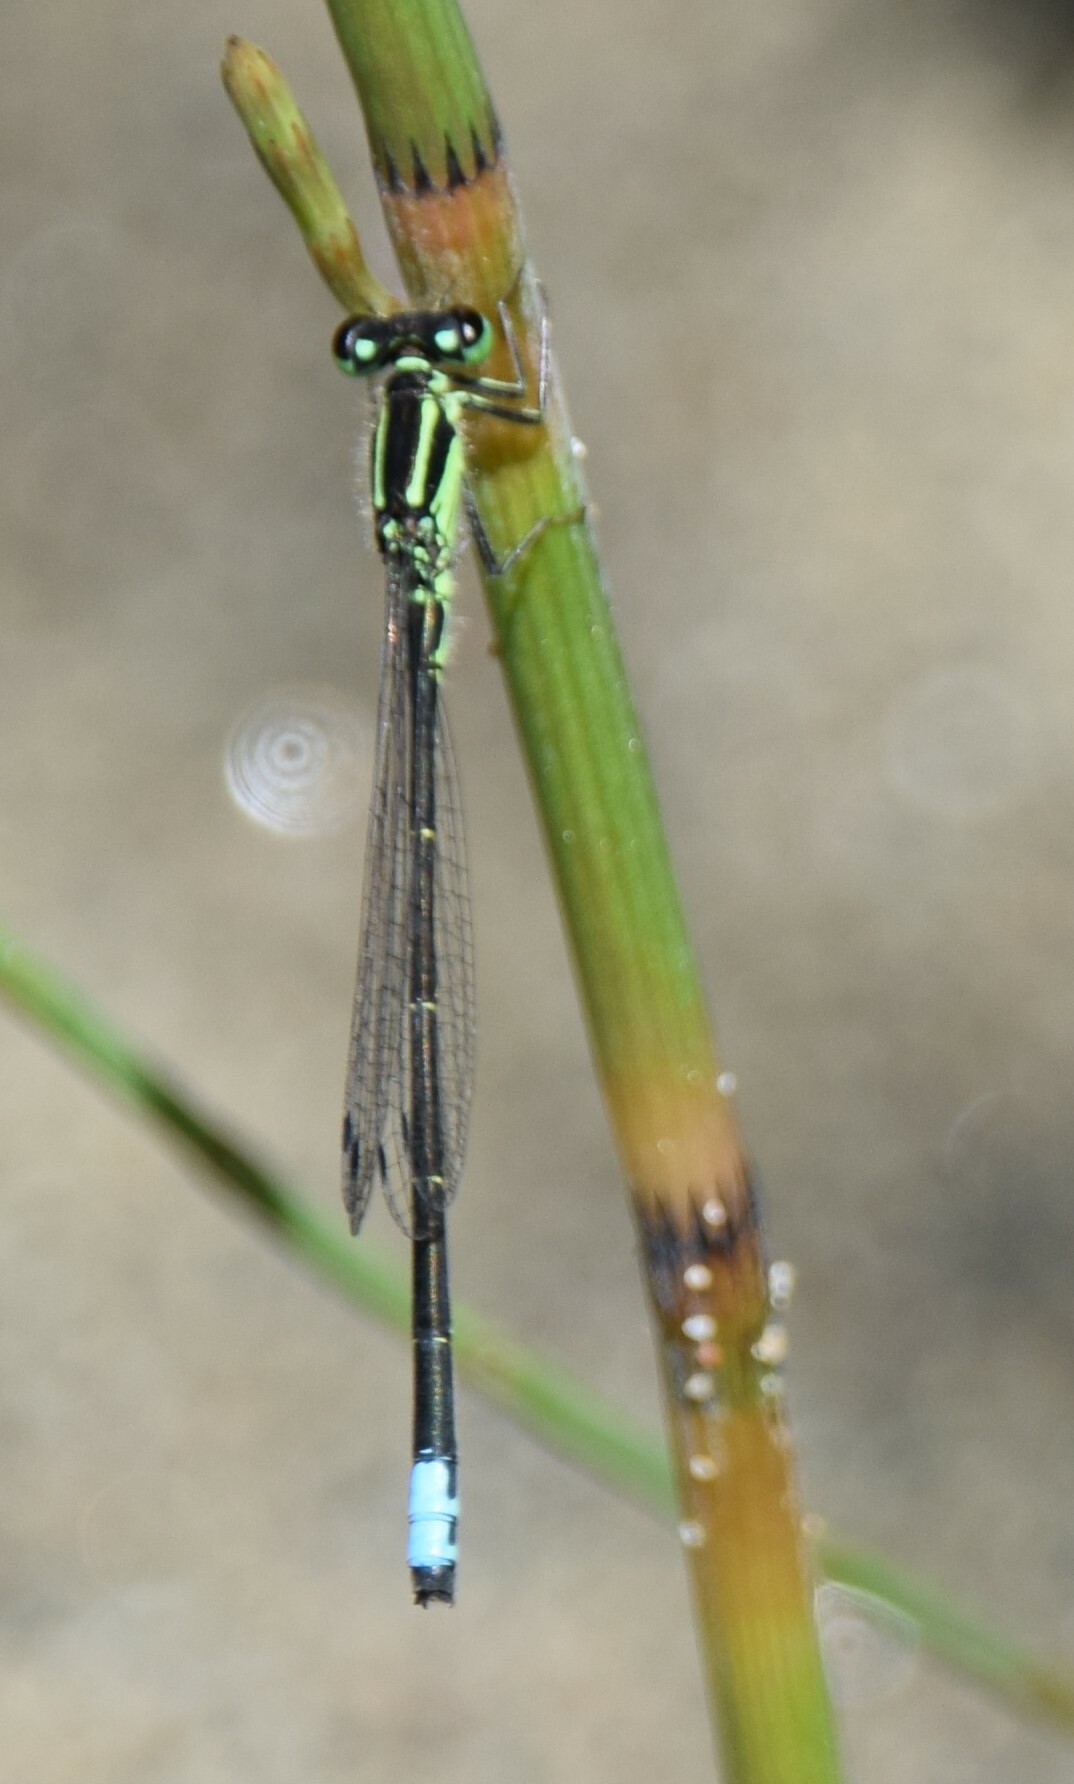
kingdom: Animalia
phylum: Arthropoda
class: Insecta
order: Odonata
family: Coenagrionidae
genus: Ischnura
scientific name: Ischnura verticalis
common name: Eastern forktail
